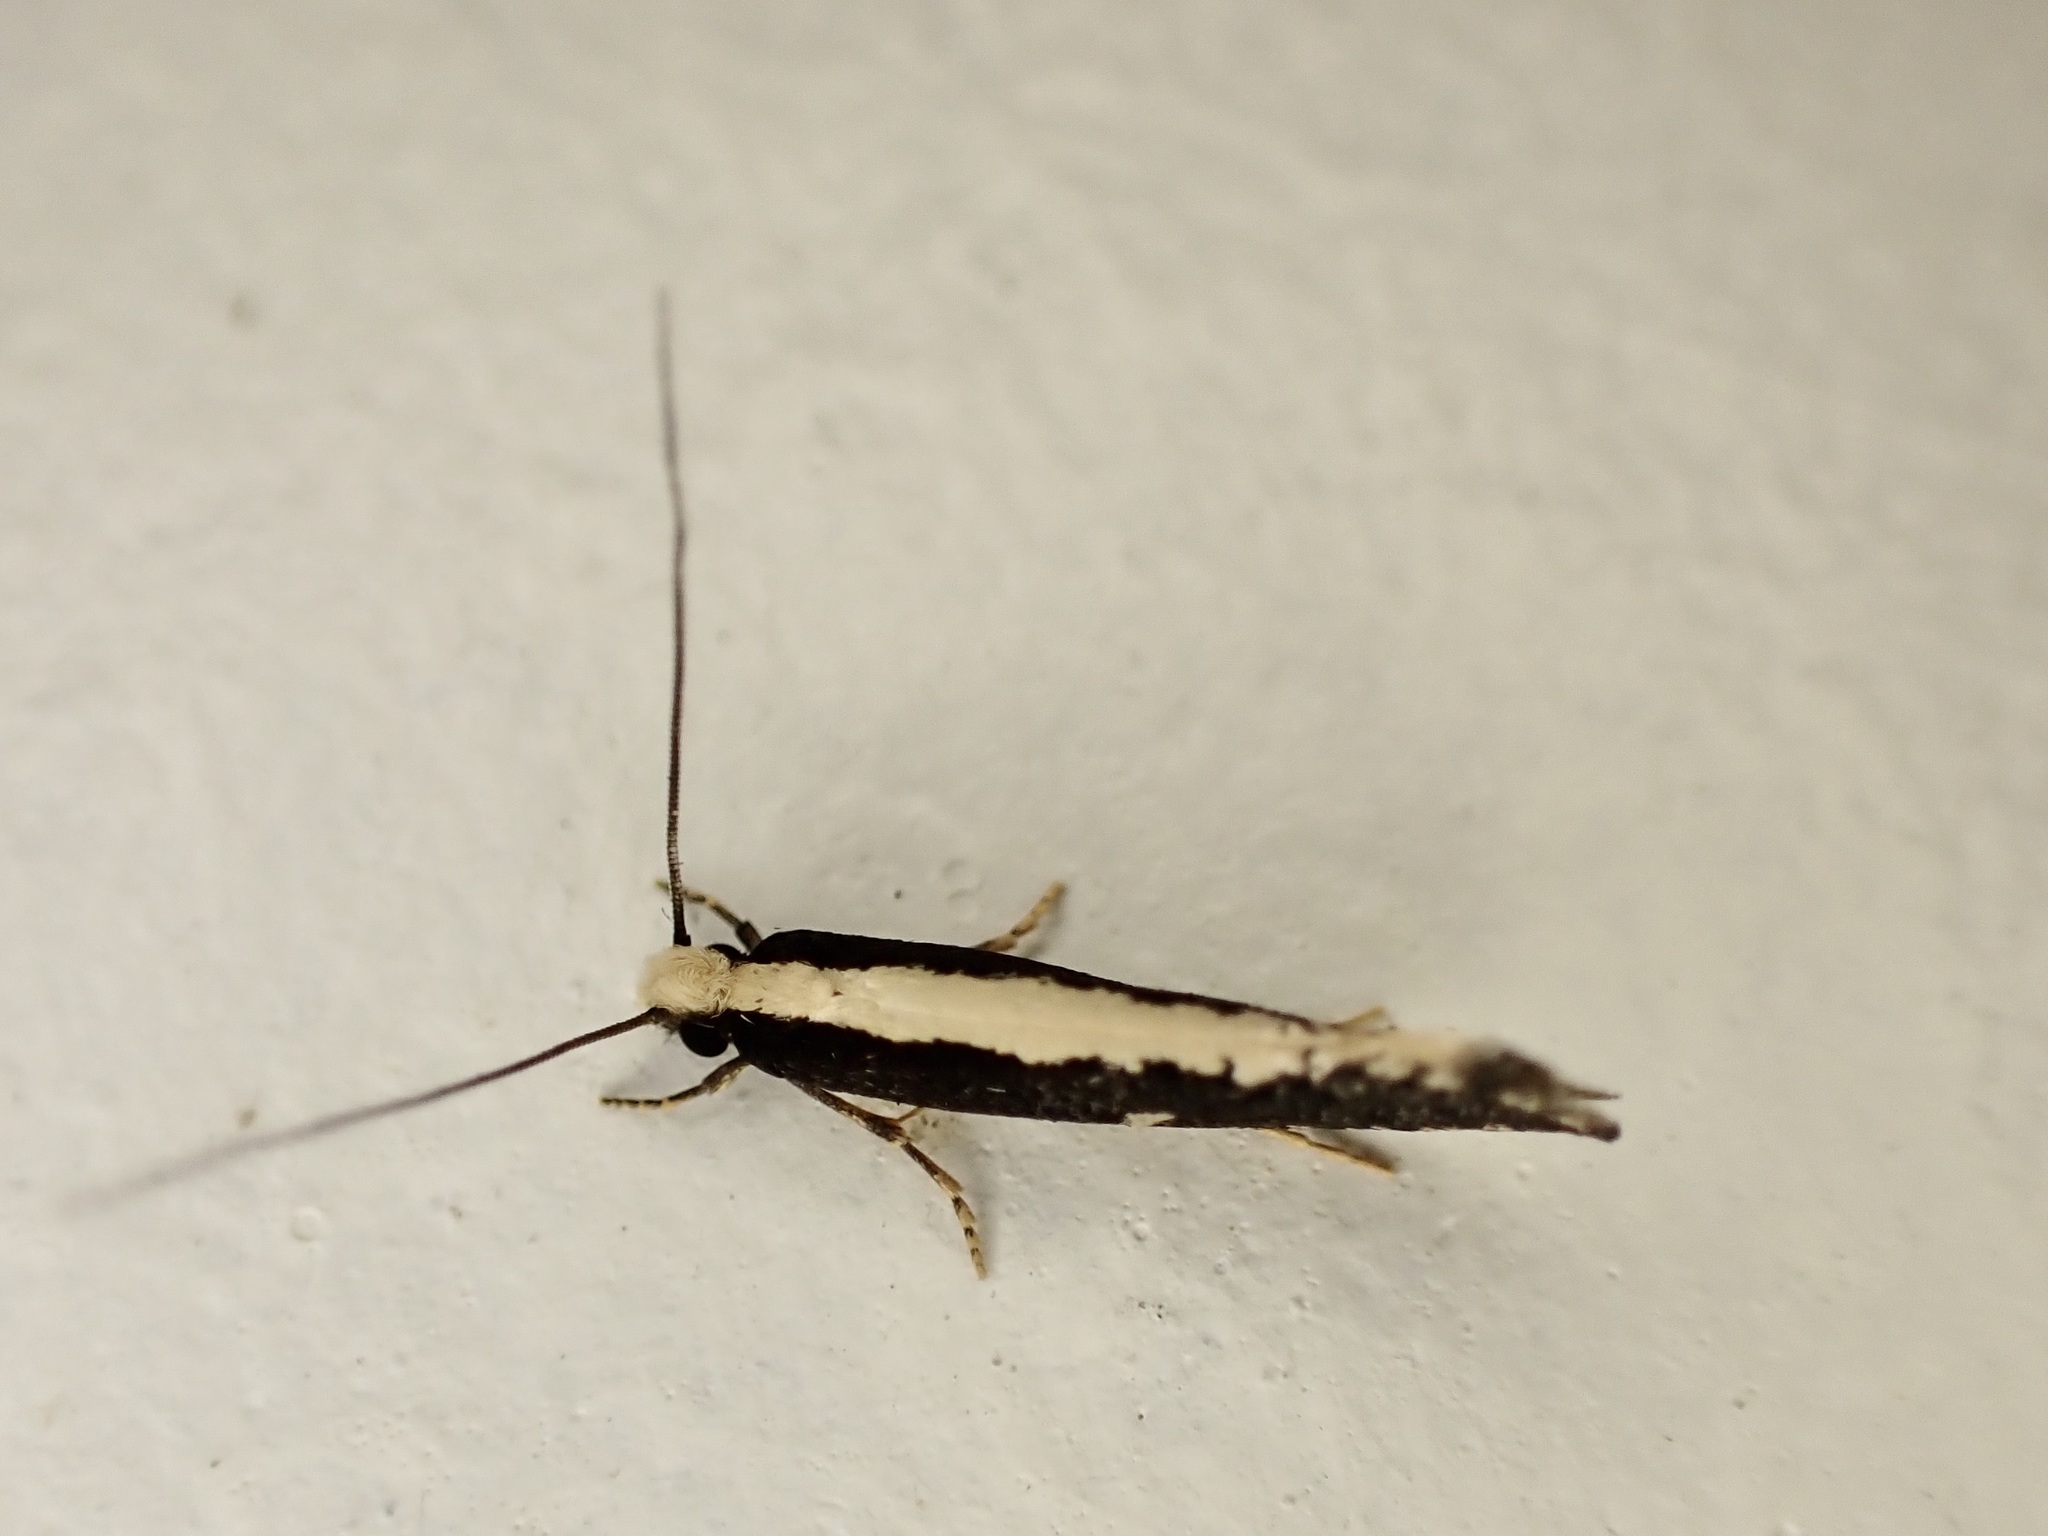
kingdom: Animalia
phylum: Arthropoda
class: Insecta
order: Lepidoptera
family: Tineidae
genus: Monopis
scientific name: Monopis ethelella
